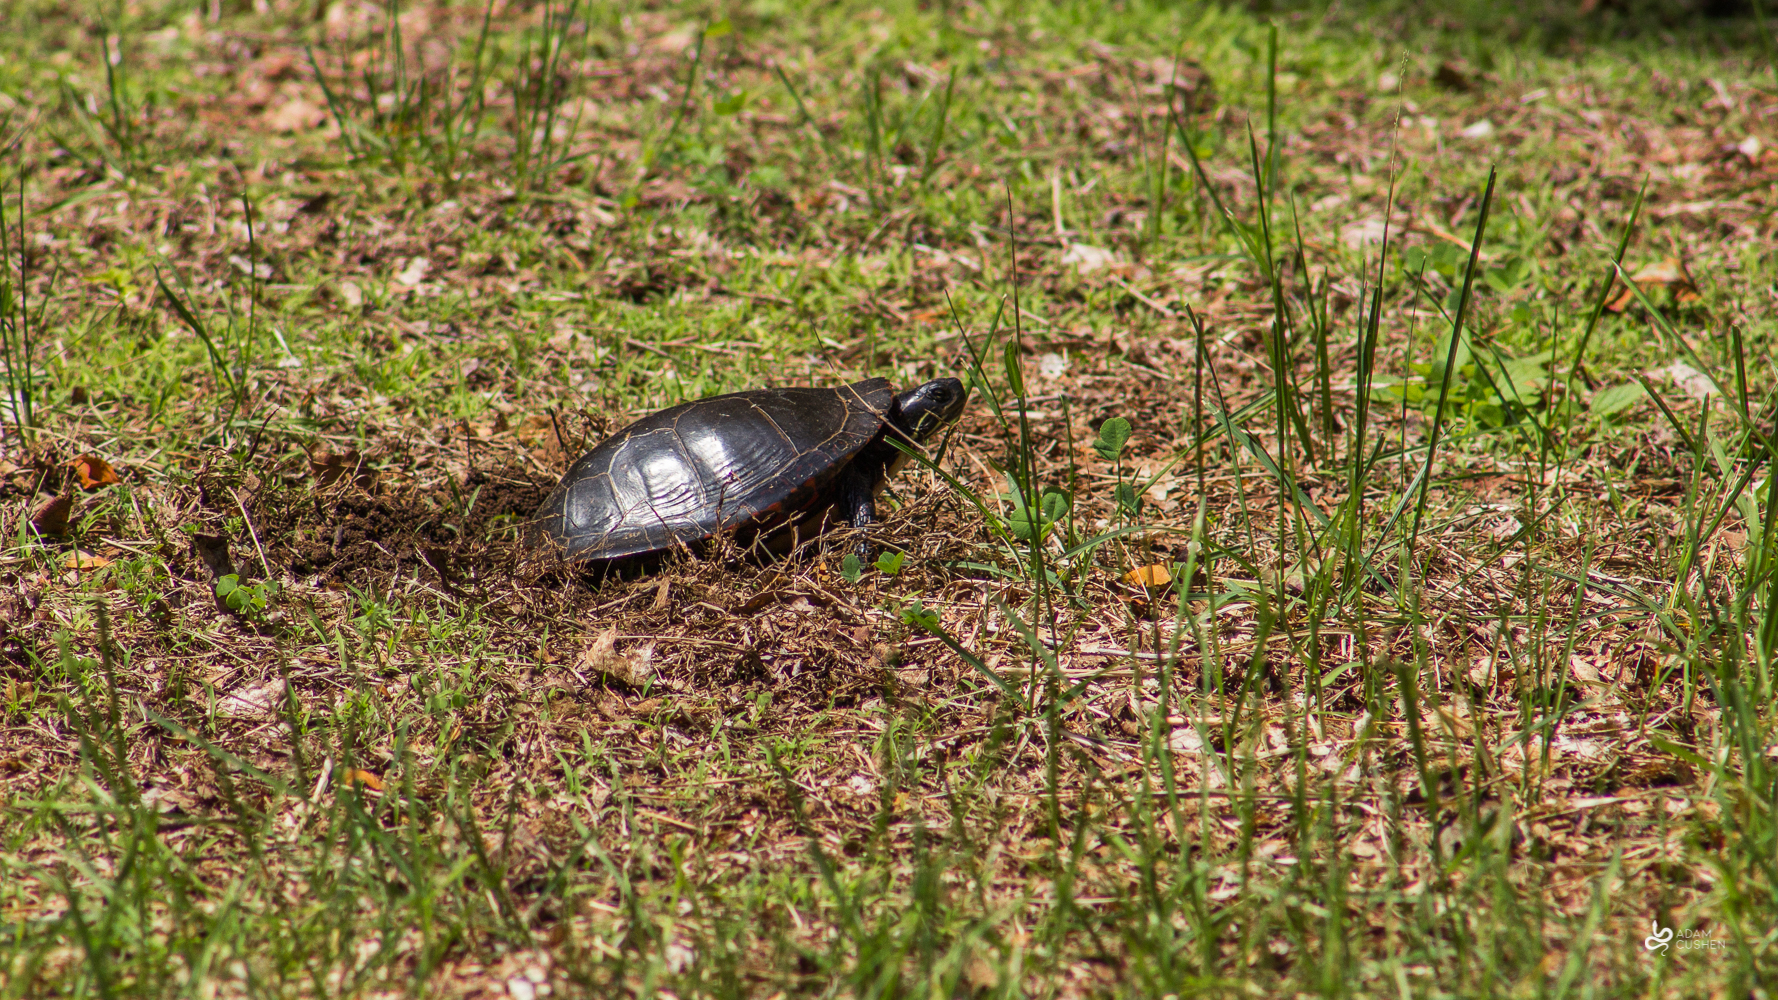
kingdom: Animalia
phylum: Chordata
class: Testudines
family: Emydidae
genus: Chrysemys
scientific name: Chrysemys picta
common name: Painted turtle
